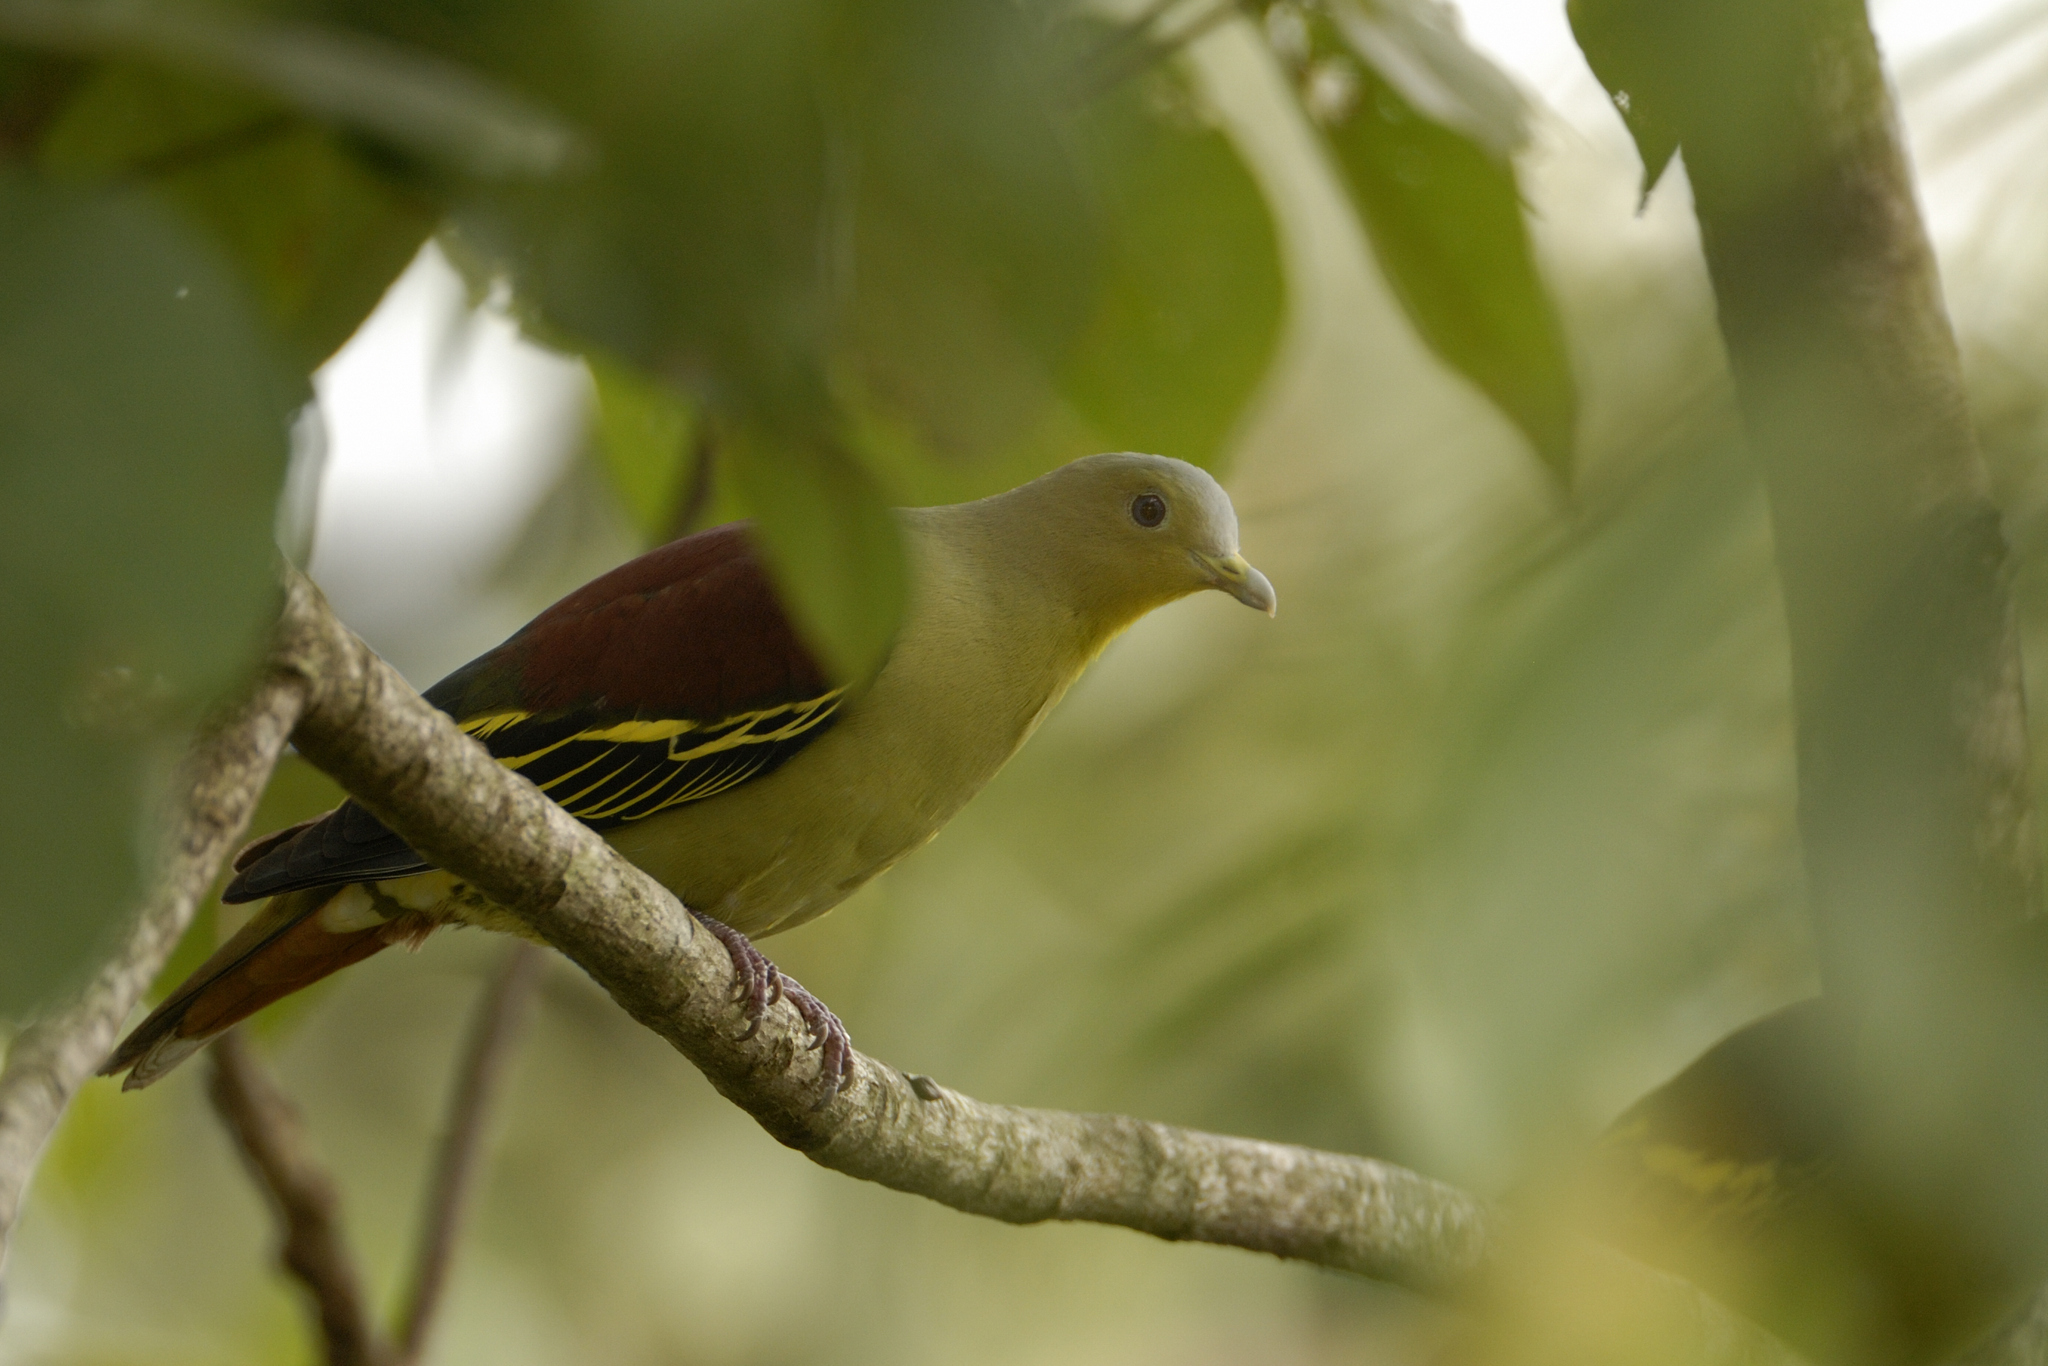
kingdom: Animalia
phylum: Chordata
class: Aves
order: Columbiformes
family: Columbidae
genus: Treron
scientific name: Treron affinis
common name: Grey-fronted green pigeon
